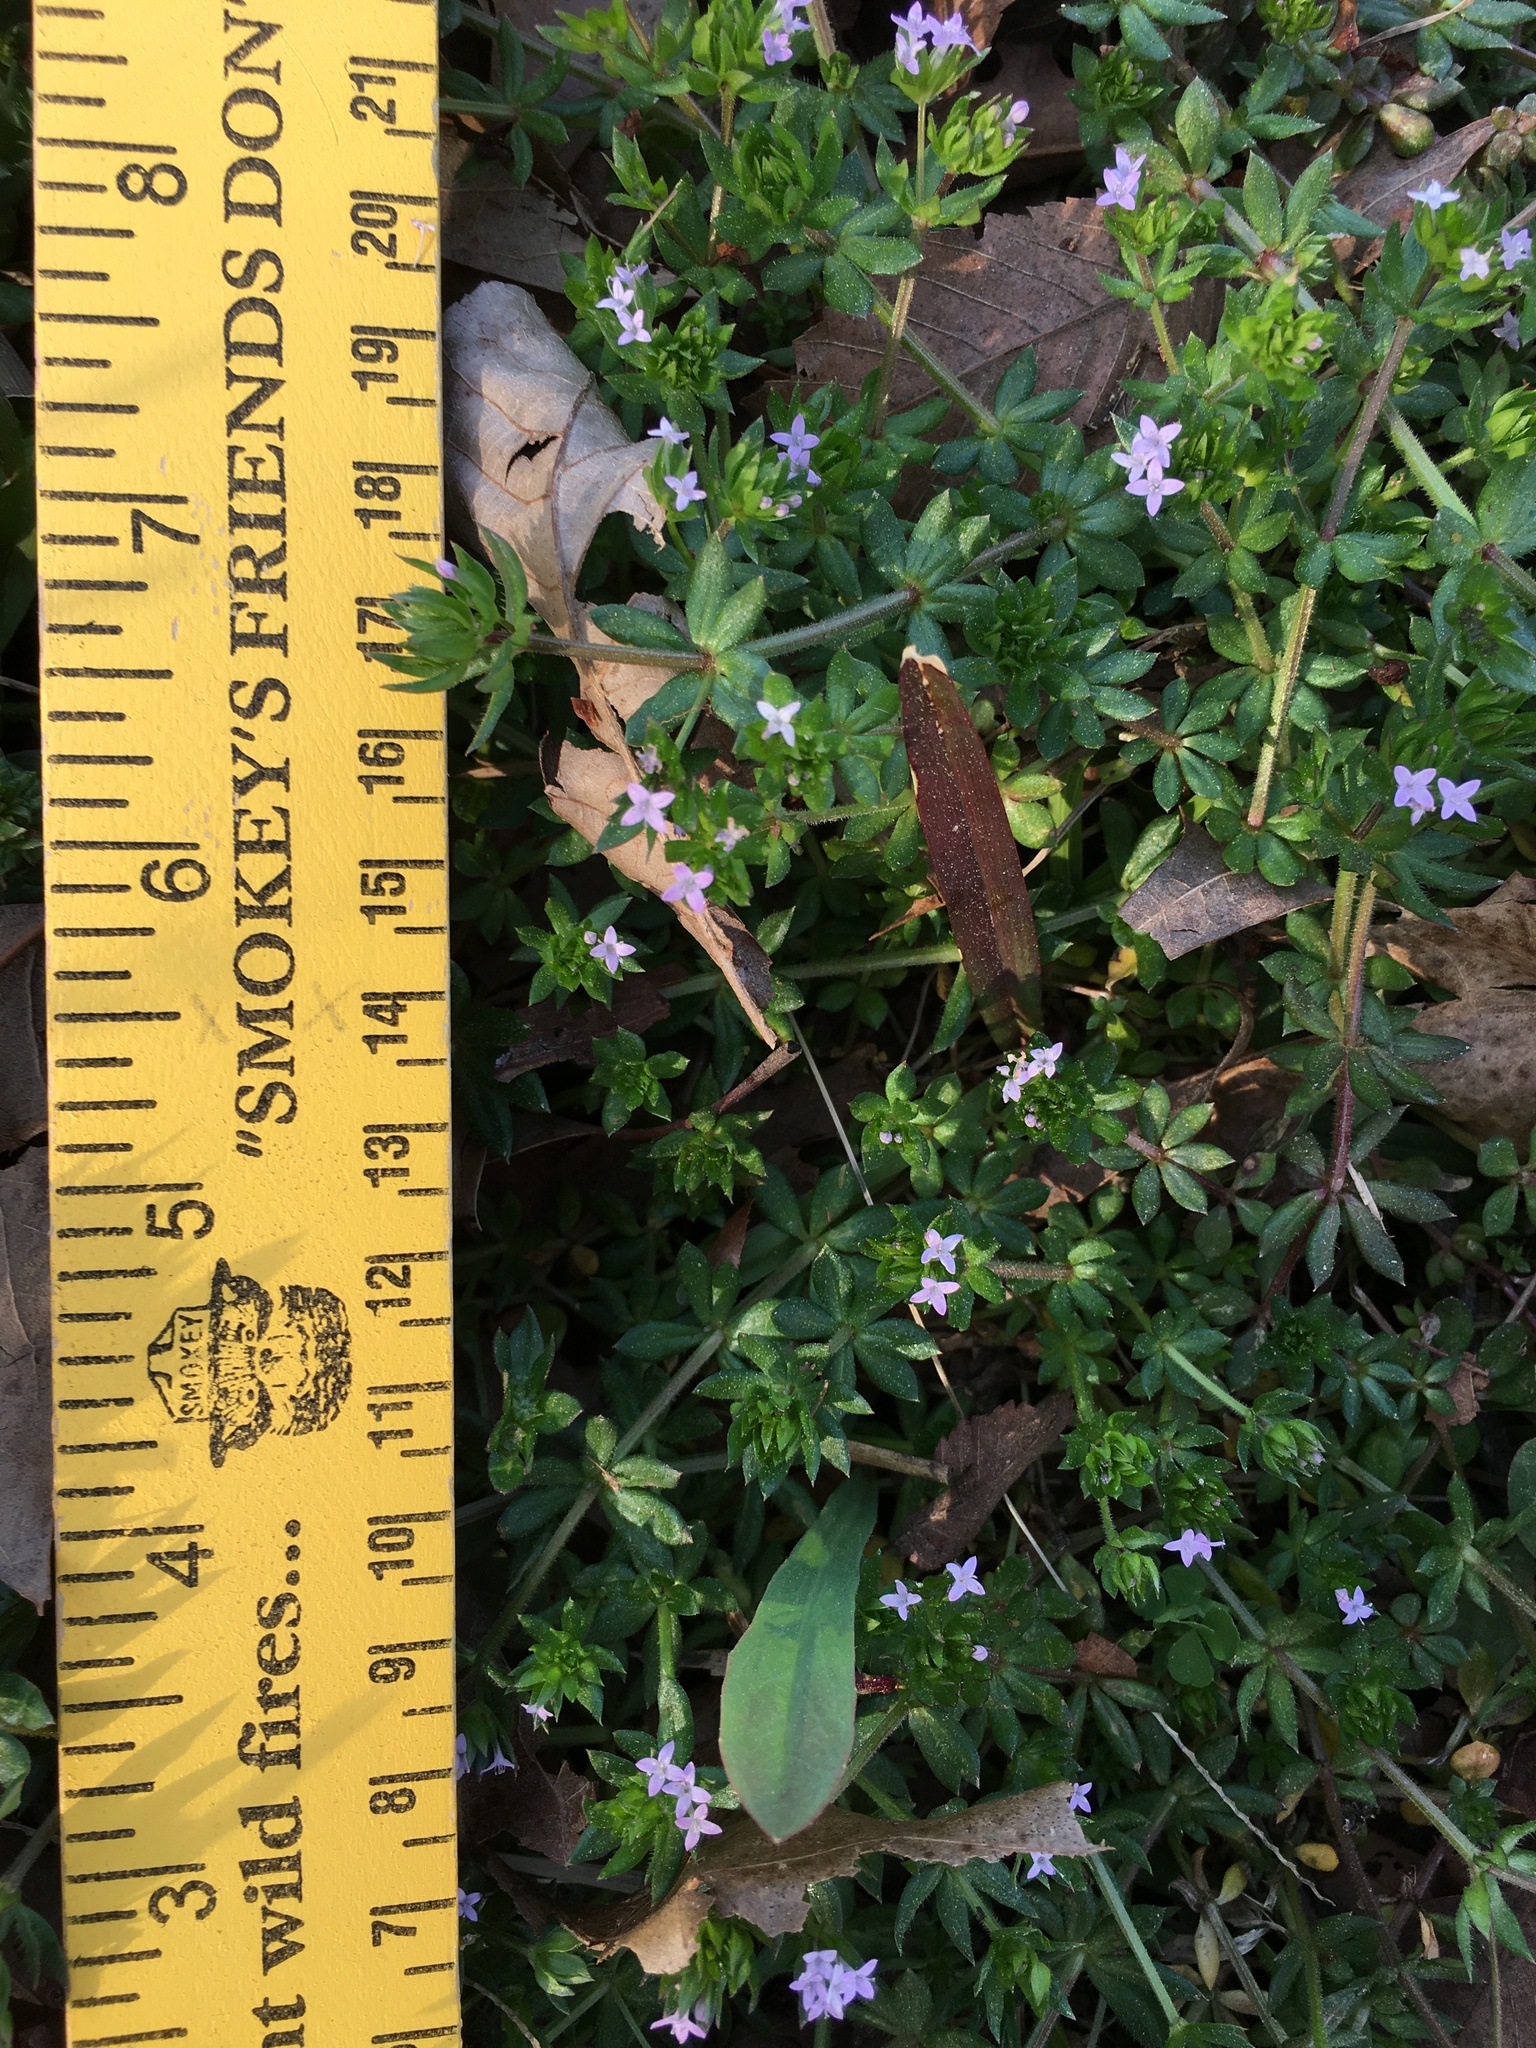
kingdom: Plantae
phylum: Tracheophyta
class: Magnoliopsida
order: Gentianales
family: Rubiaceae
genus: Sherardia
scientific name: Sherardia arvensis
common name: Field madder
